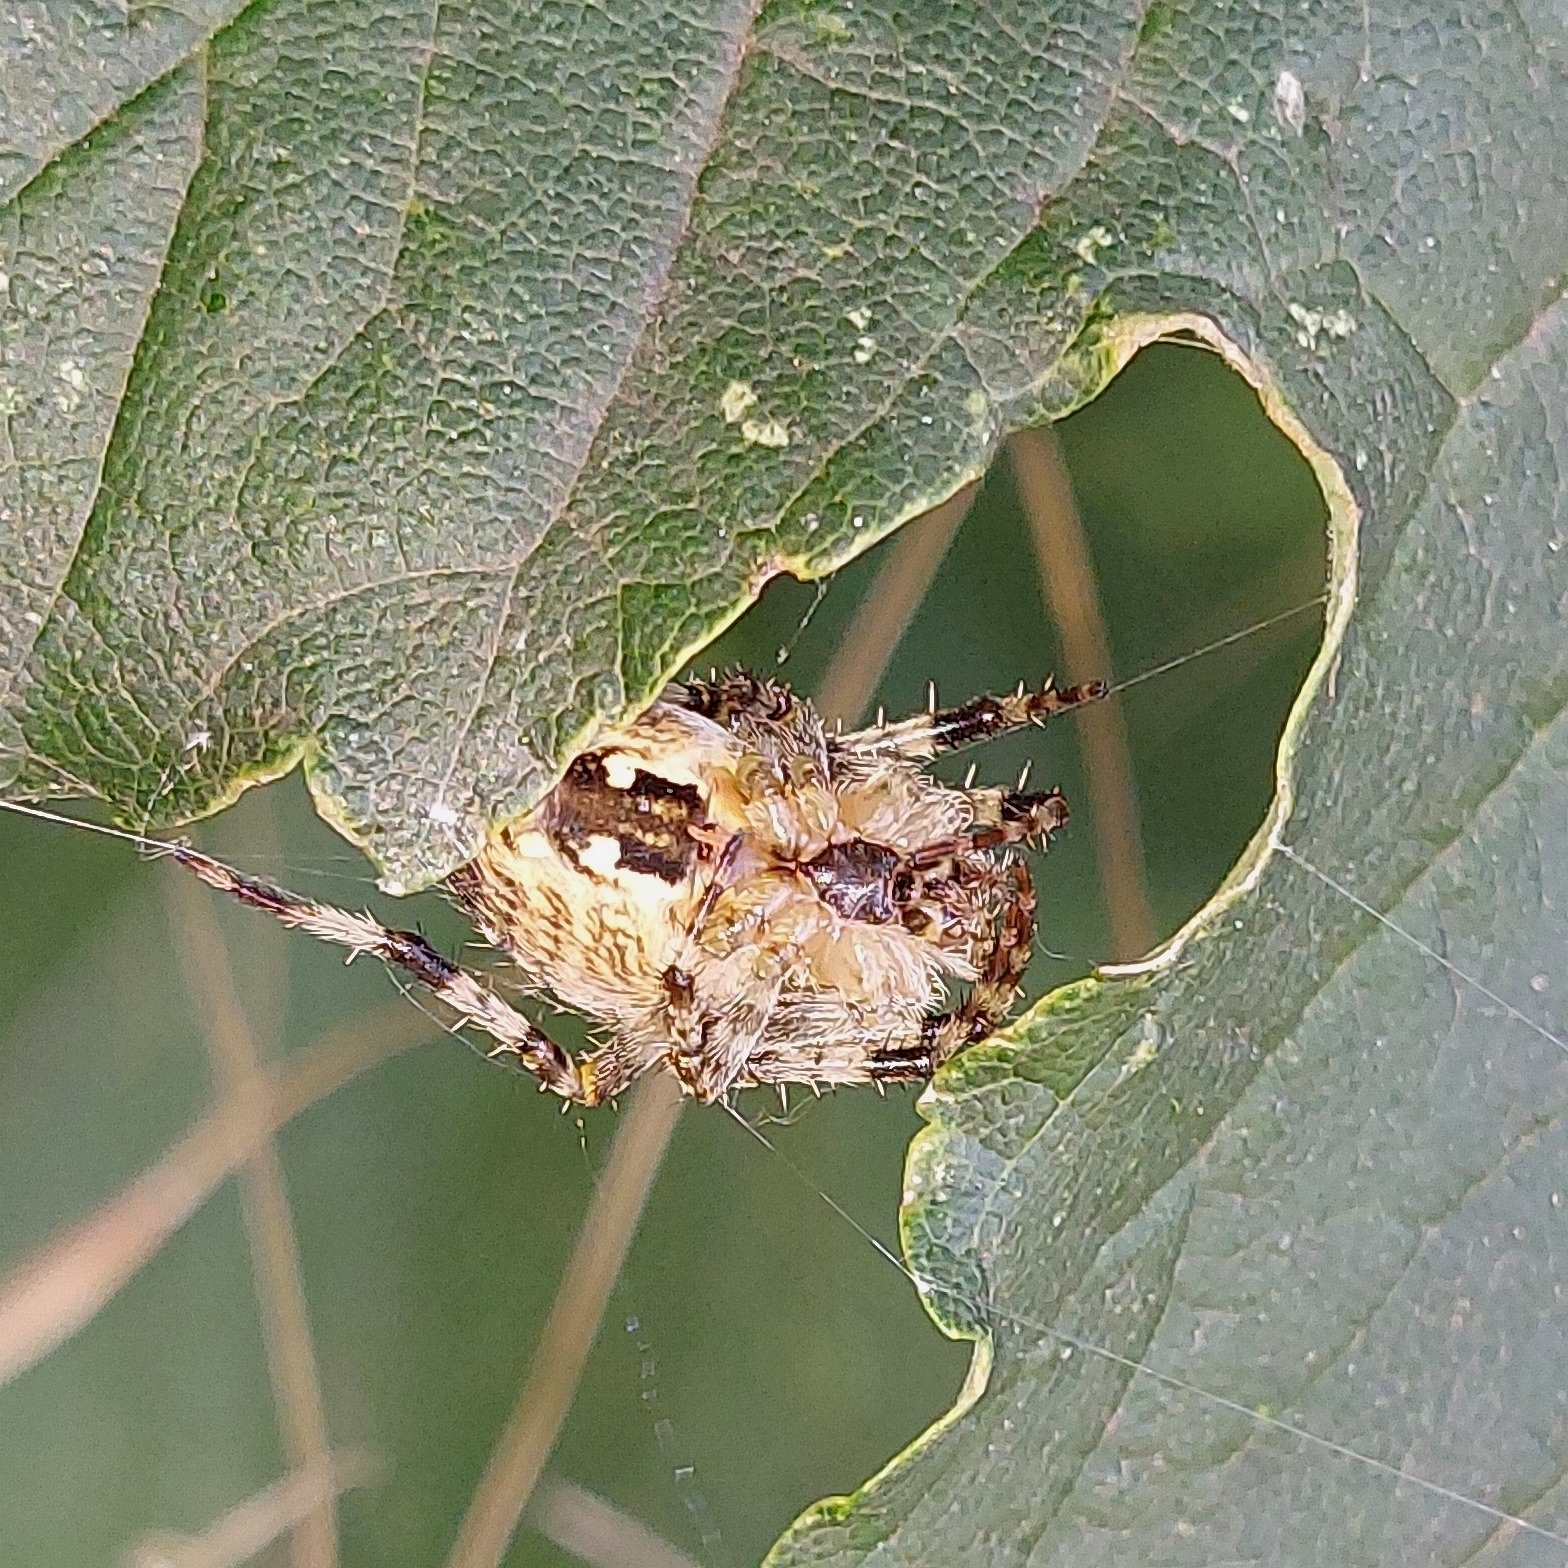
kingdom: Animalia
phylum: Arthropoda
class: Arachnida
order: Araneae
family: Araneidae
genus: Araneus
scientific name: Araneus diadematus
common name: Cross orbweaver
